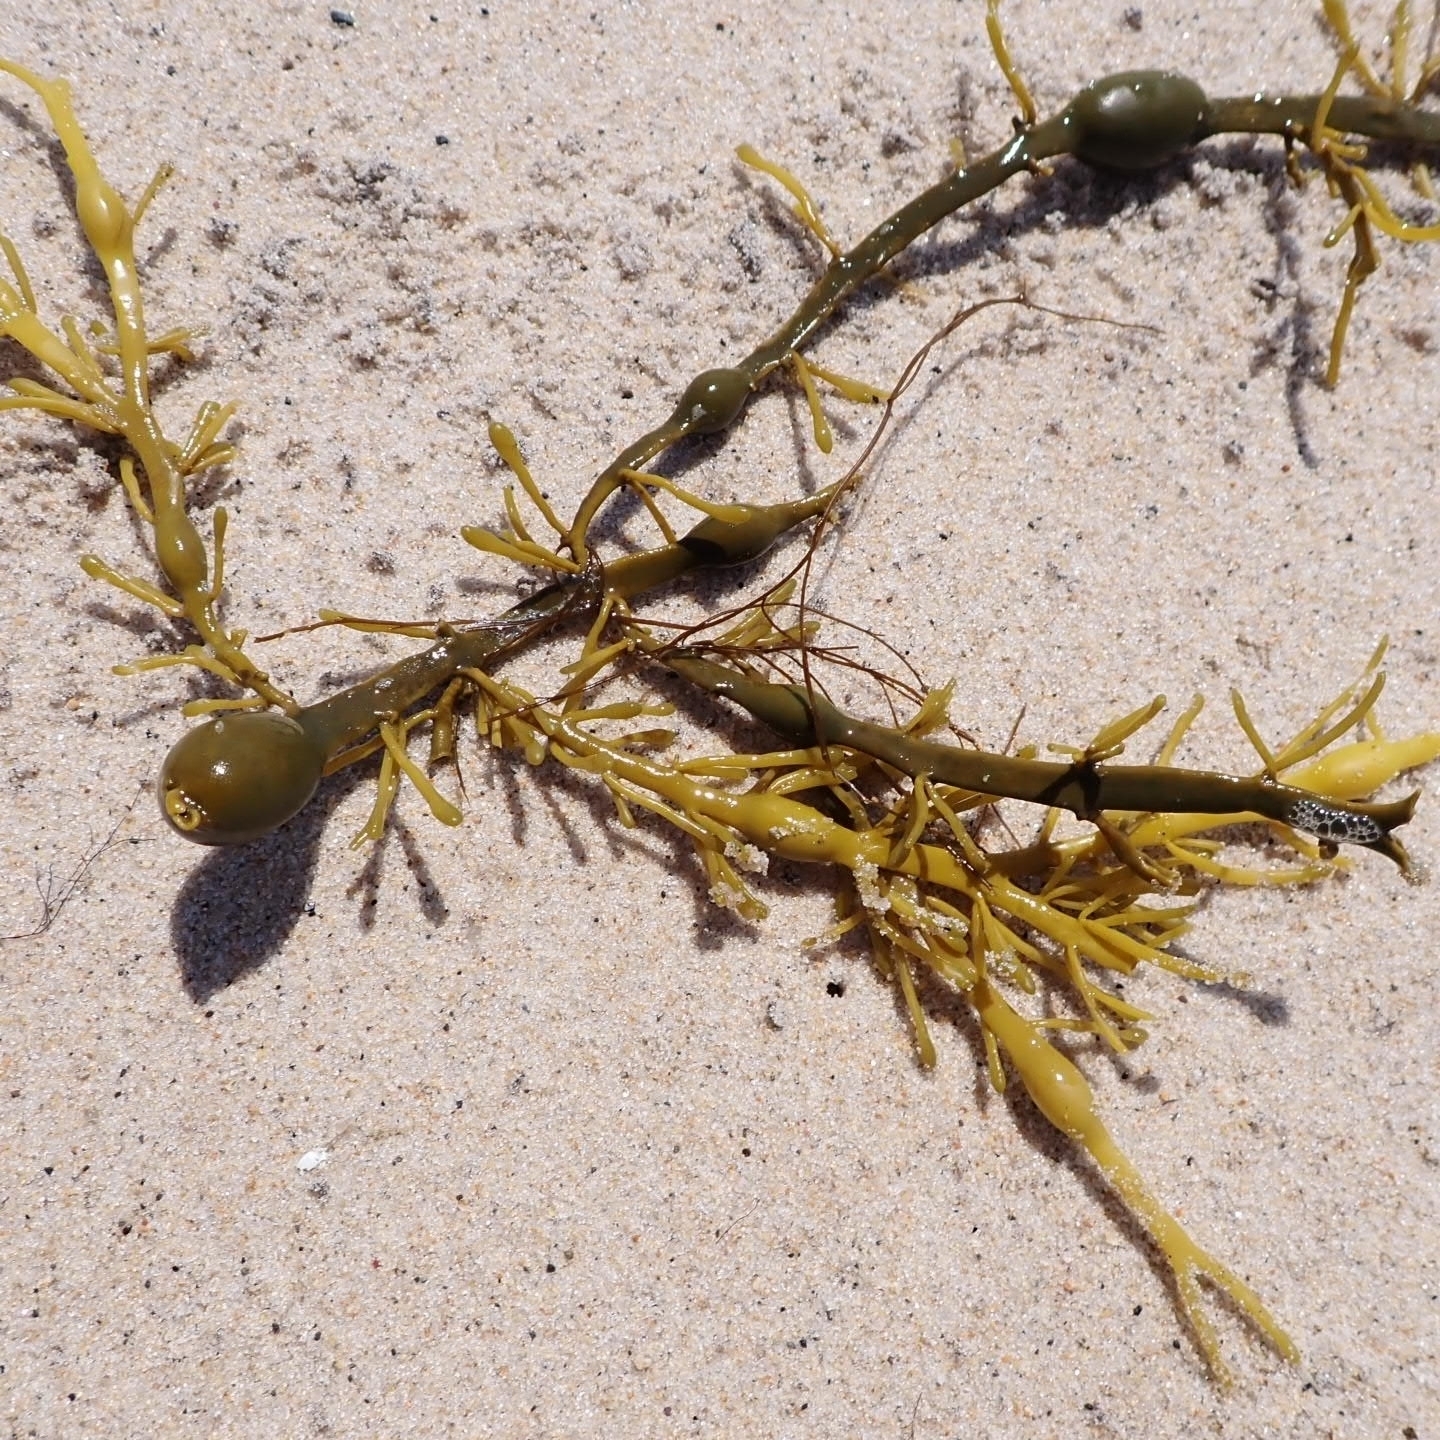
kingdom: Chromista
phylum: Ochrophyta
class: Phaeophyceae
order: Fucales
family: Fucaceae
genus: Ascophyllum
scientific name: Ascophyllum nodosum
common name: Knotted wrack
